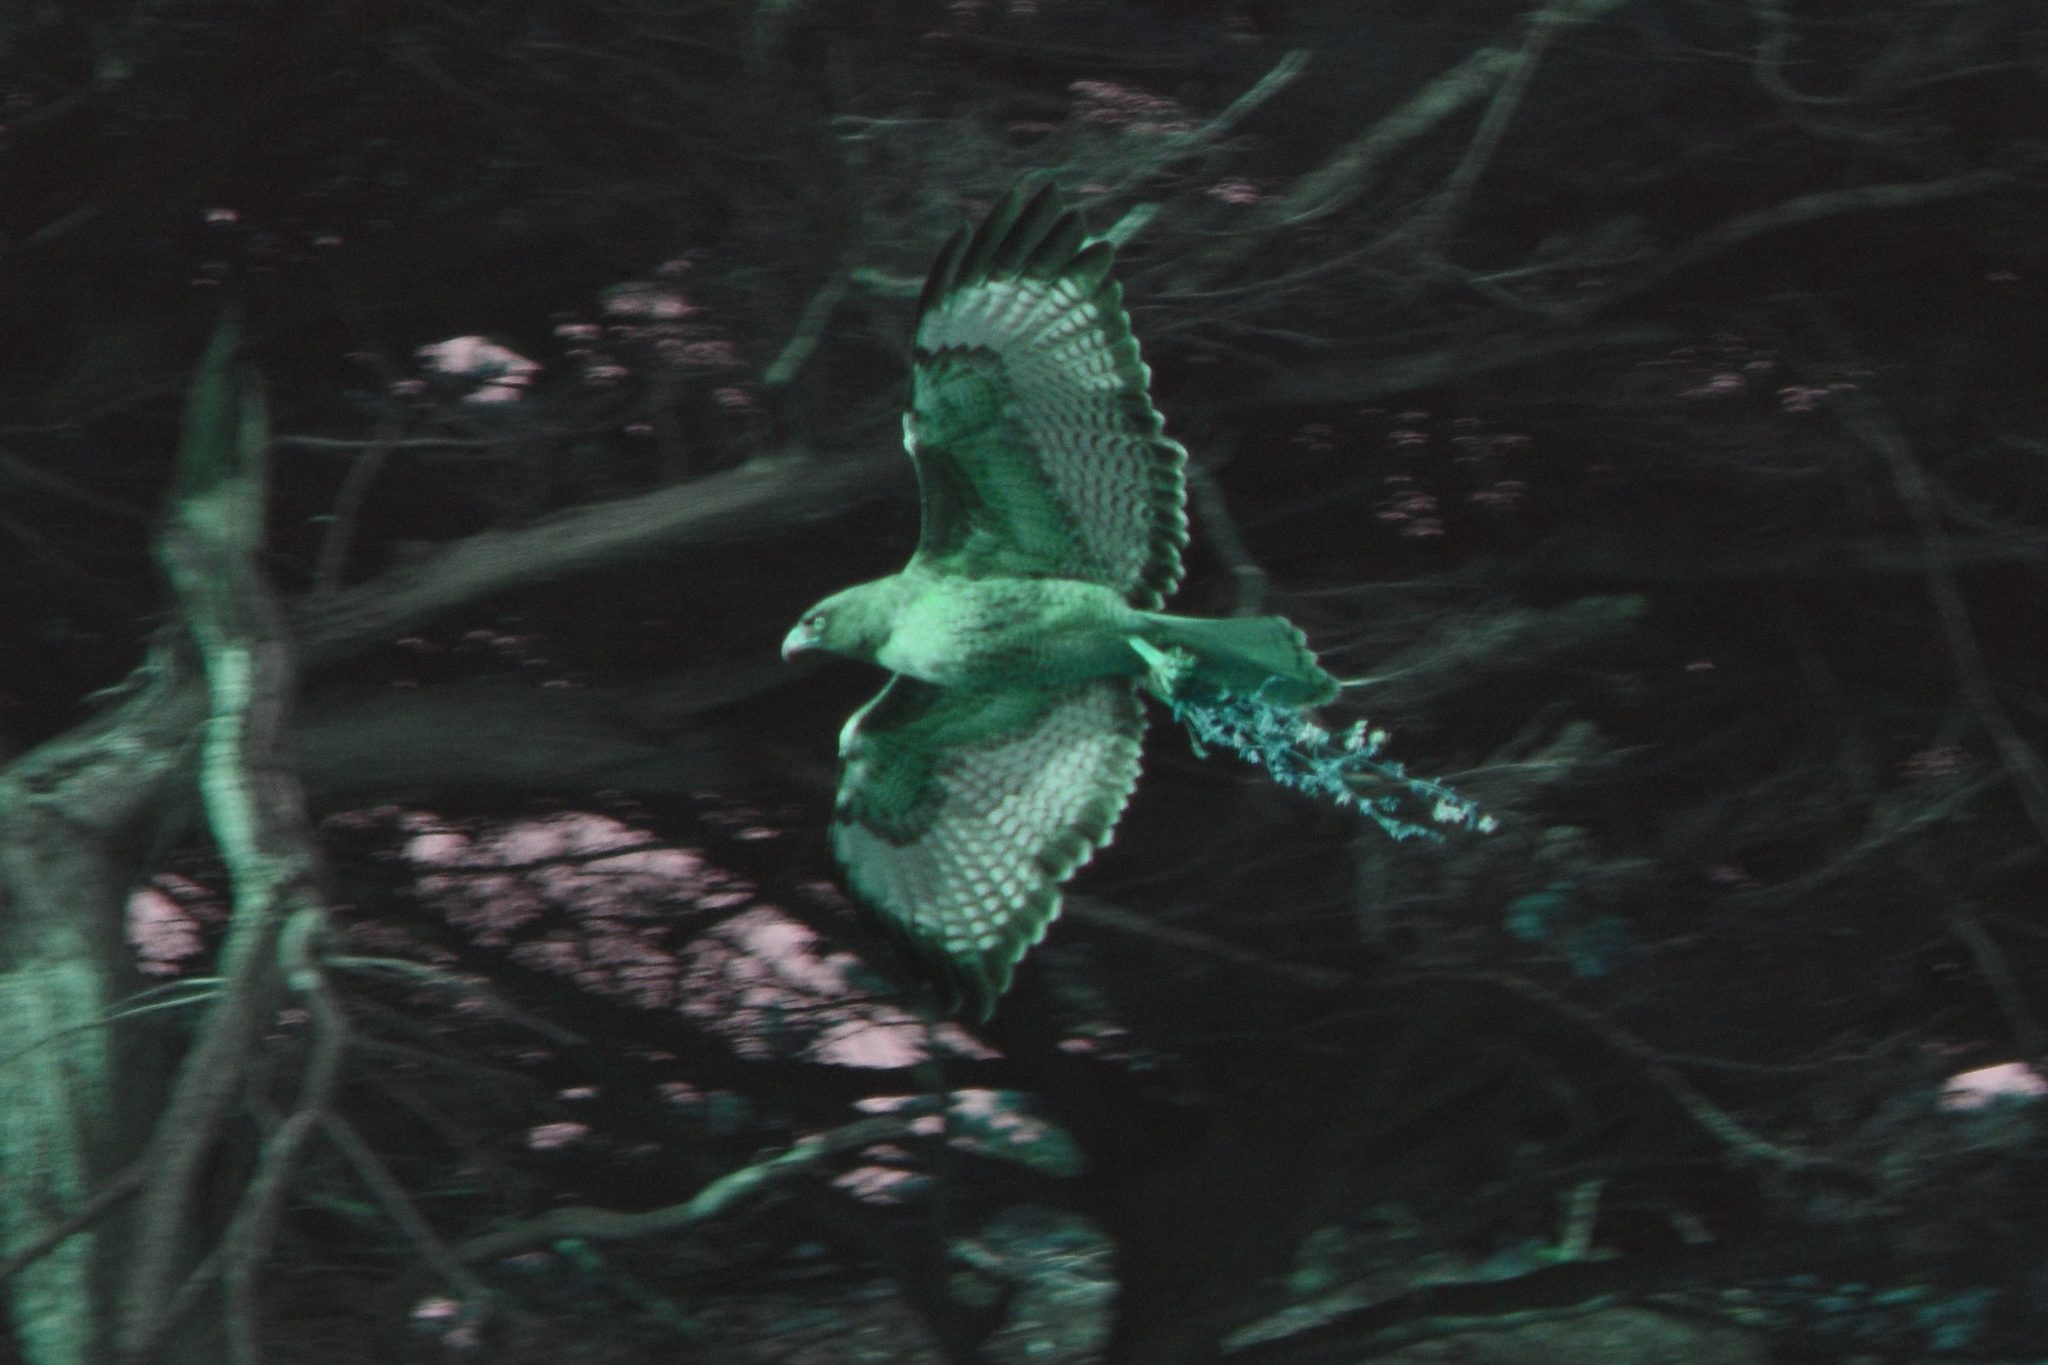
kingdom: Animalia
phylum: Chordata
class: Aves
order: Accipitriformes
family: Accipitridae
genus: Buteo
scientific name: Buteo jamaicensis
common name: Red-tailed hawk
